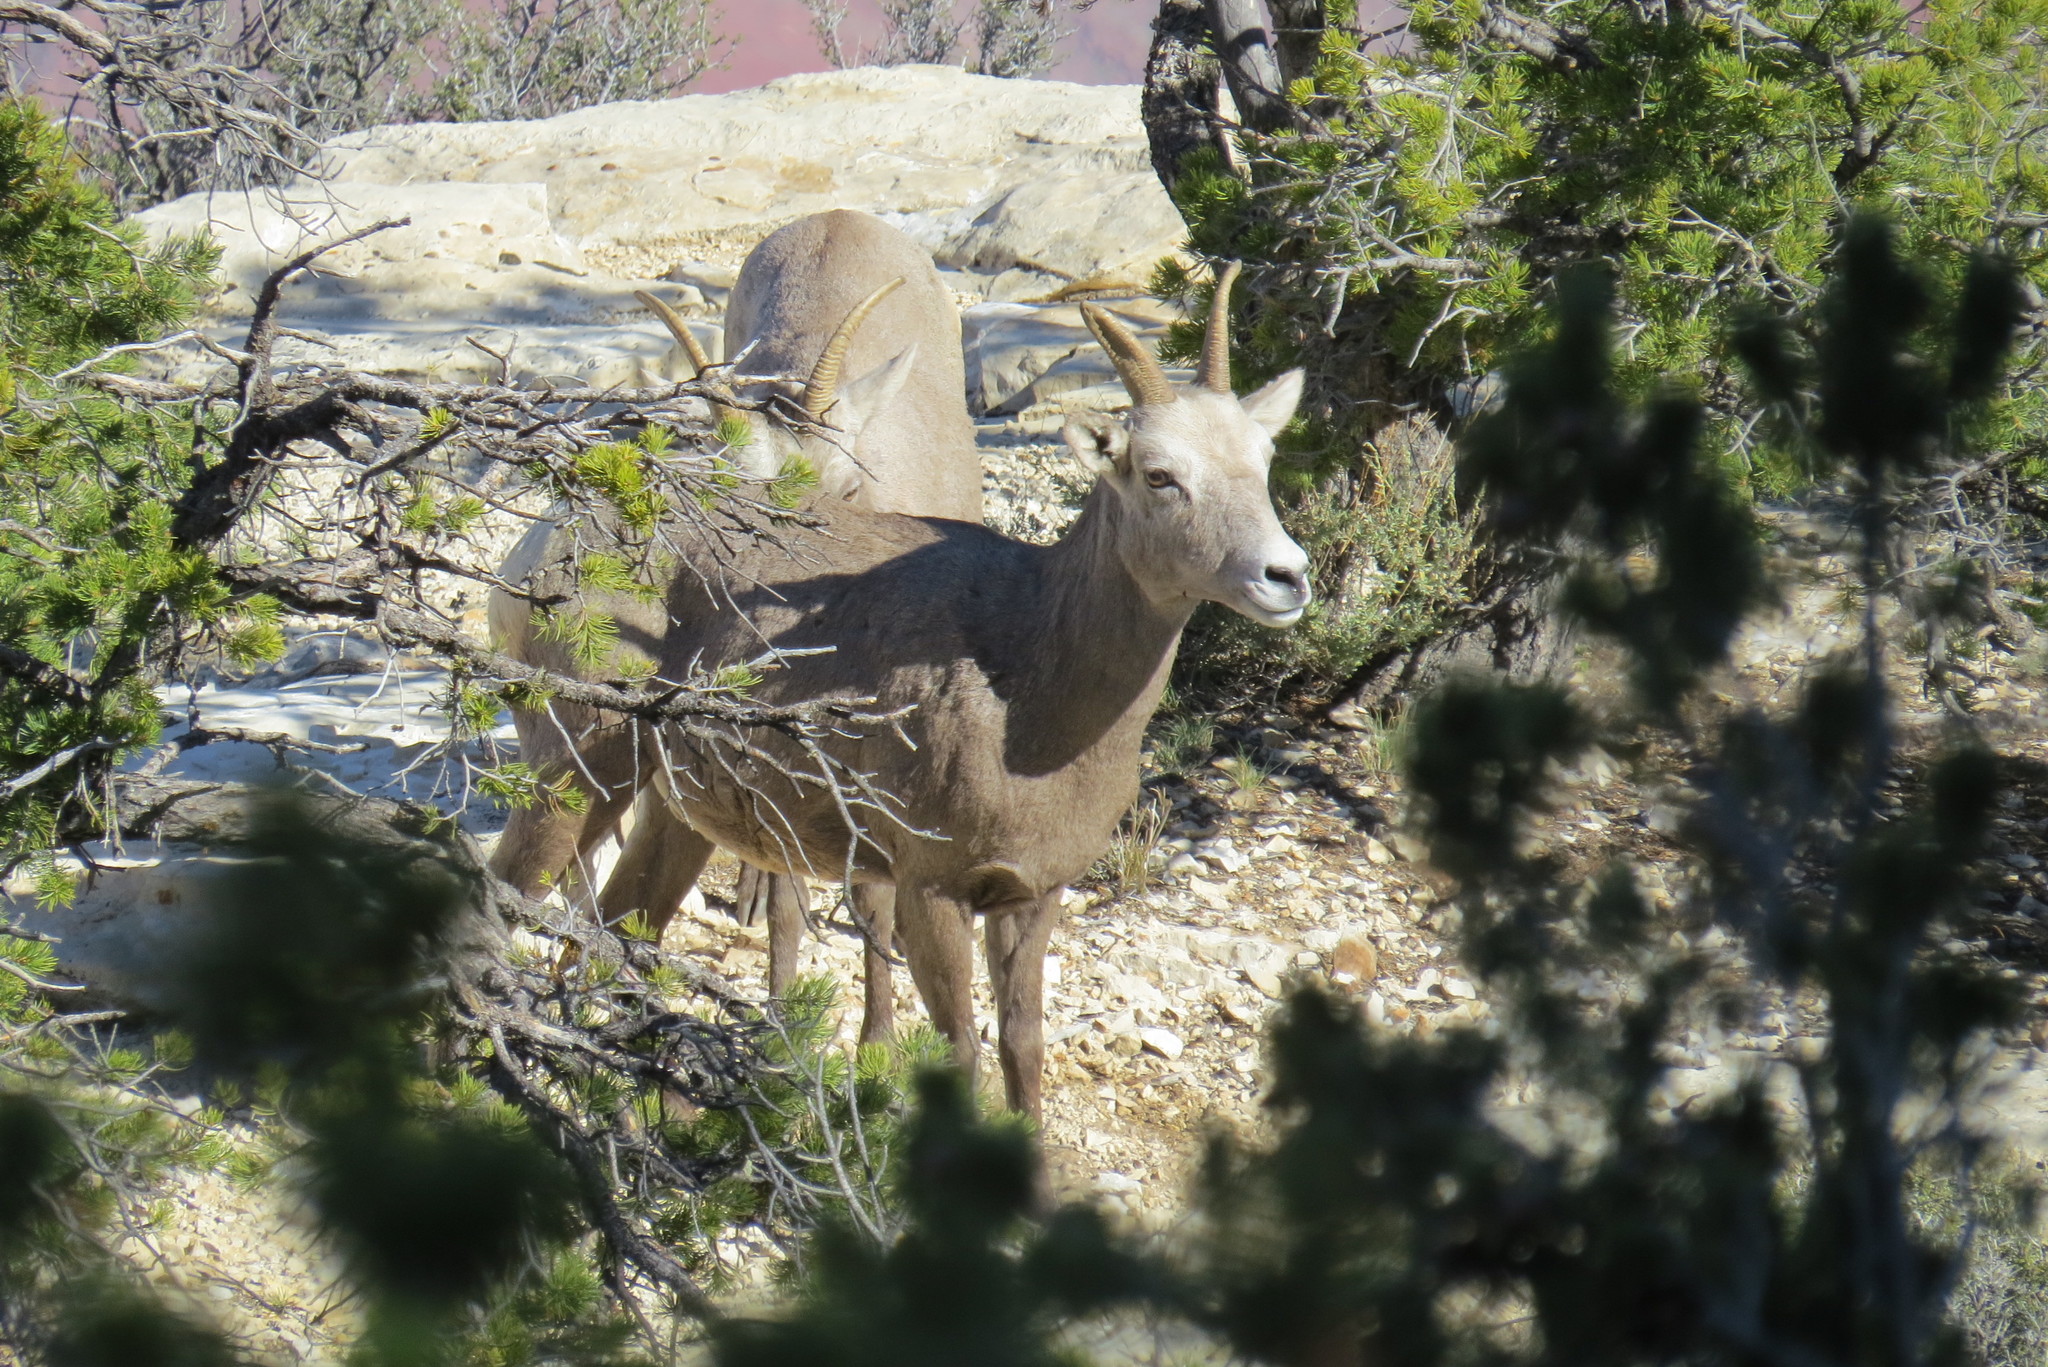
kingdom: Animalia
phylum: Chordata
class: Mammalia
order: Artiodactyla
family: Bovidae
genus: Ovis
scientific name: Ovis canadensis
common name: Bighorn sheep
